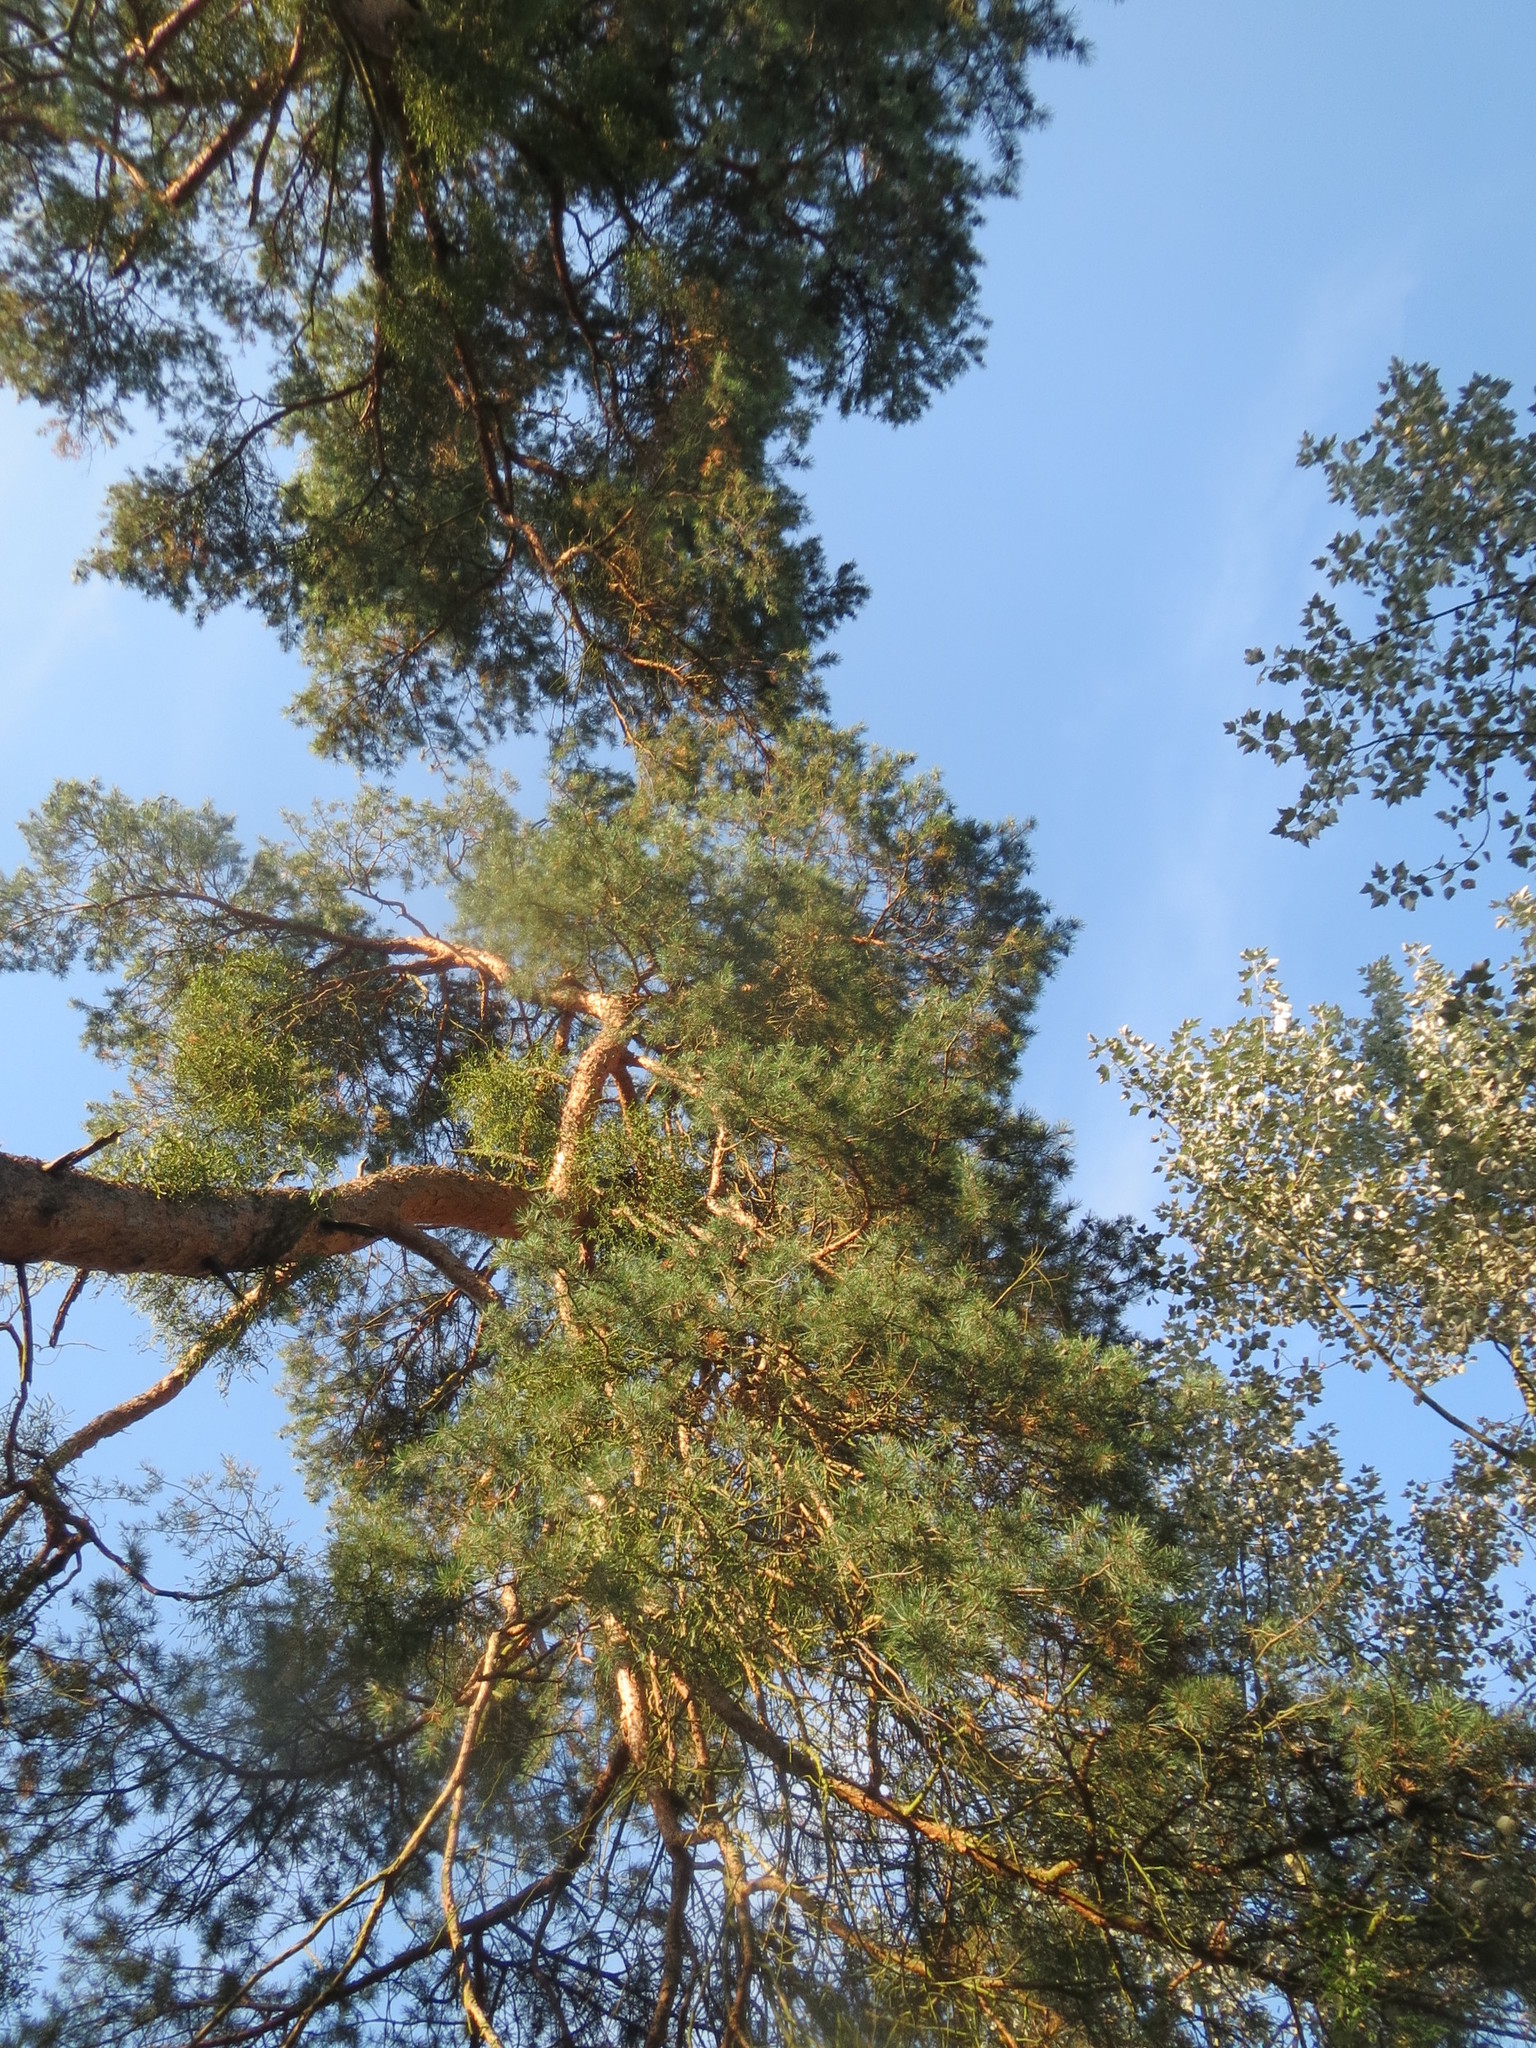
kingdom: Plantae
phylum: Tracheophyta
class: Pinopsida
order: Pinales
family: Pinaceae
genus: Pinus
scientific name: Pinus sylvestris
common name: Scots pine
